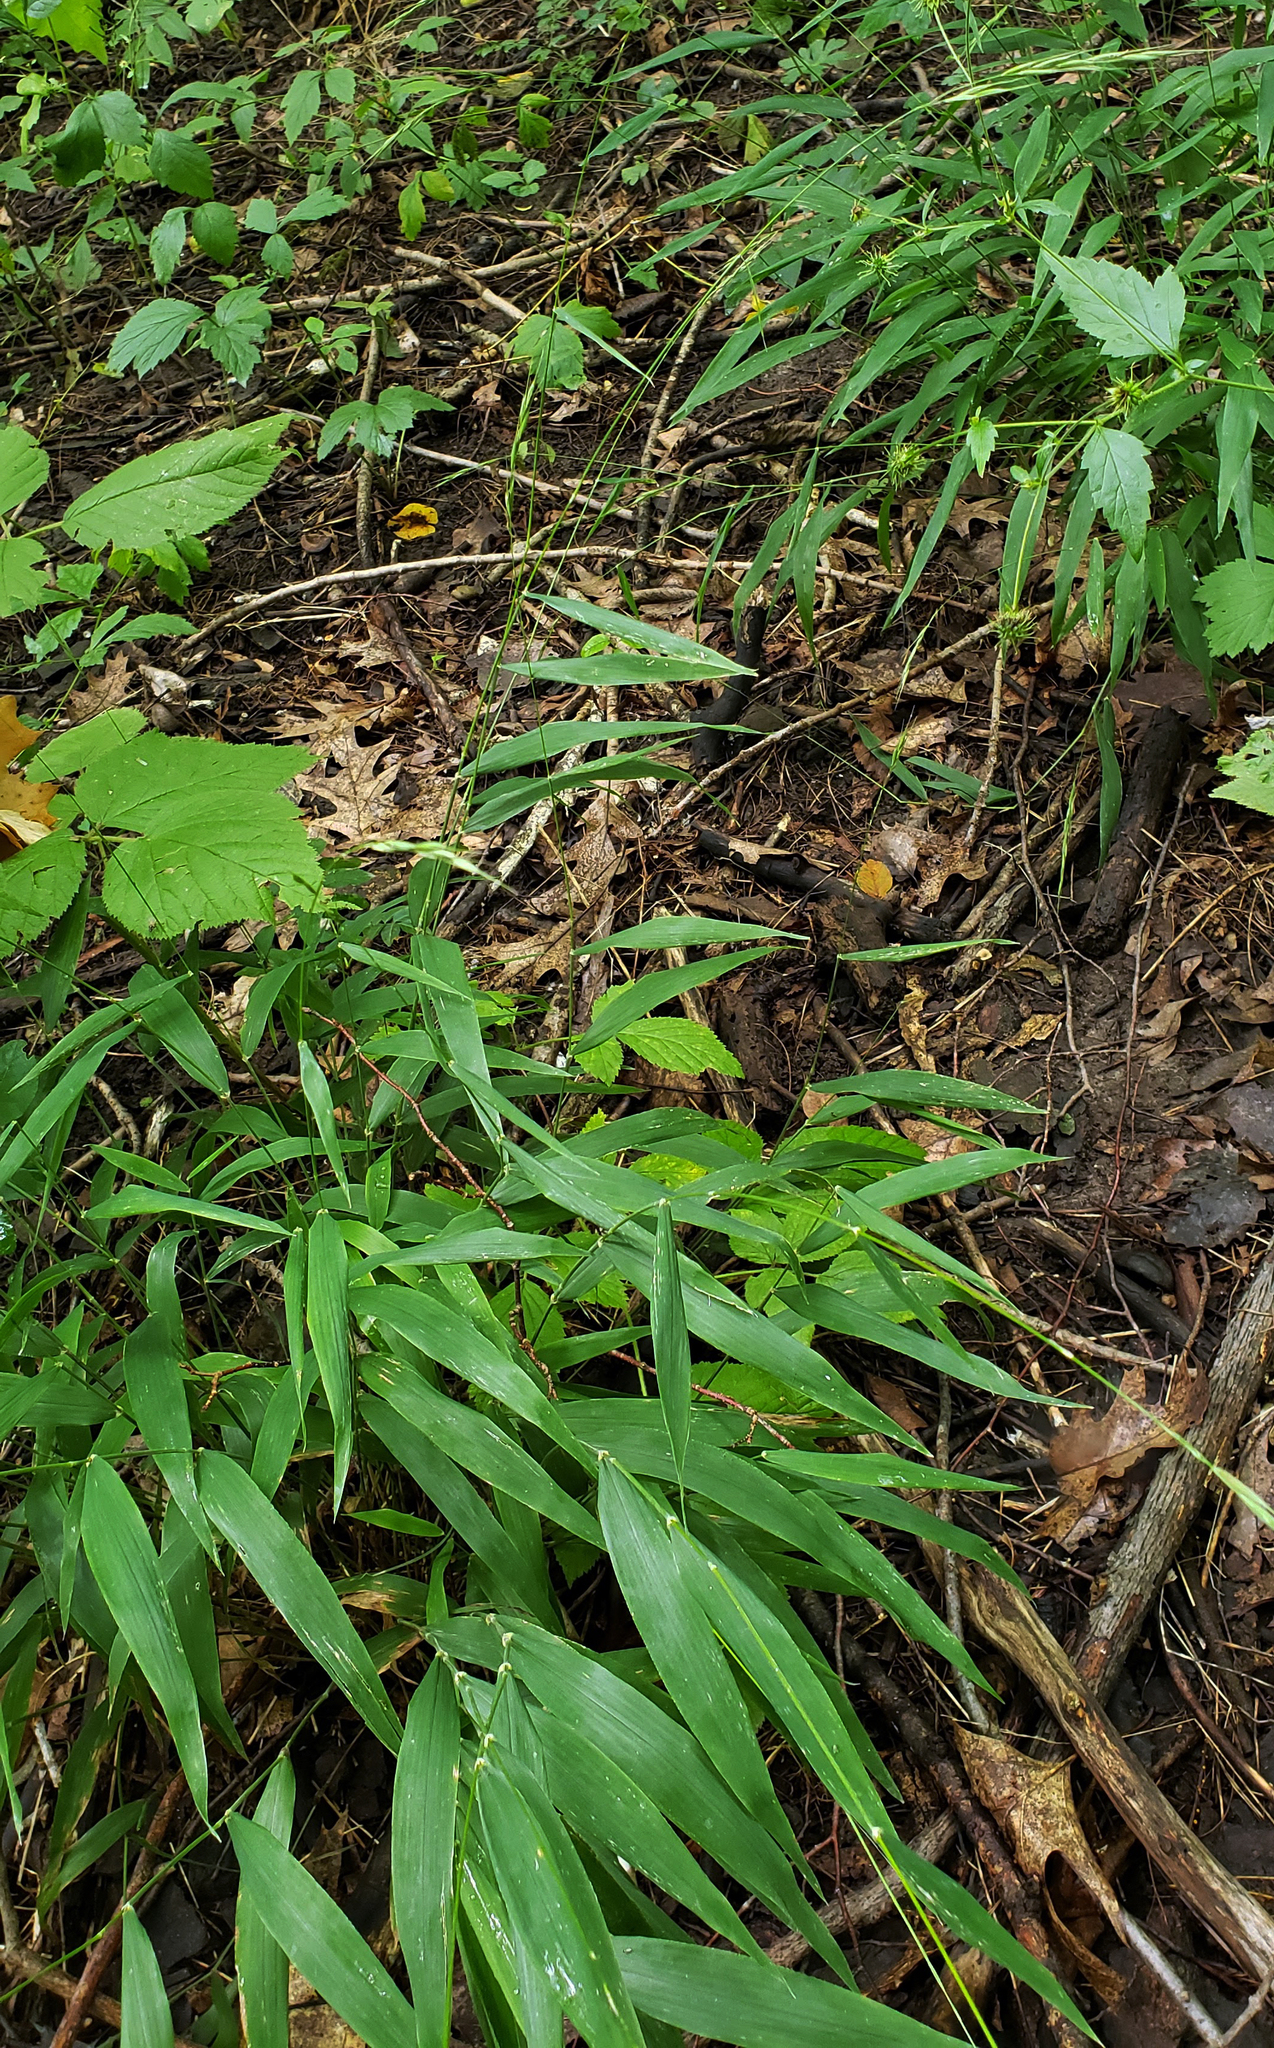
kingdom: Plantae
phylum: Tracheophyta
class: Liliopsida
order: Poales
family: Poaceae
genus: Brachyelytrum
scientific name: Brachyelytrum erectum
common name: Bearded shorthusk
